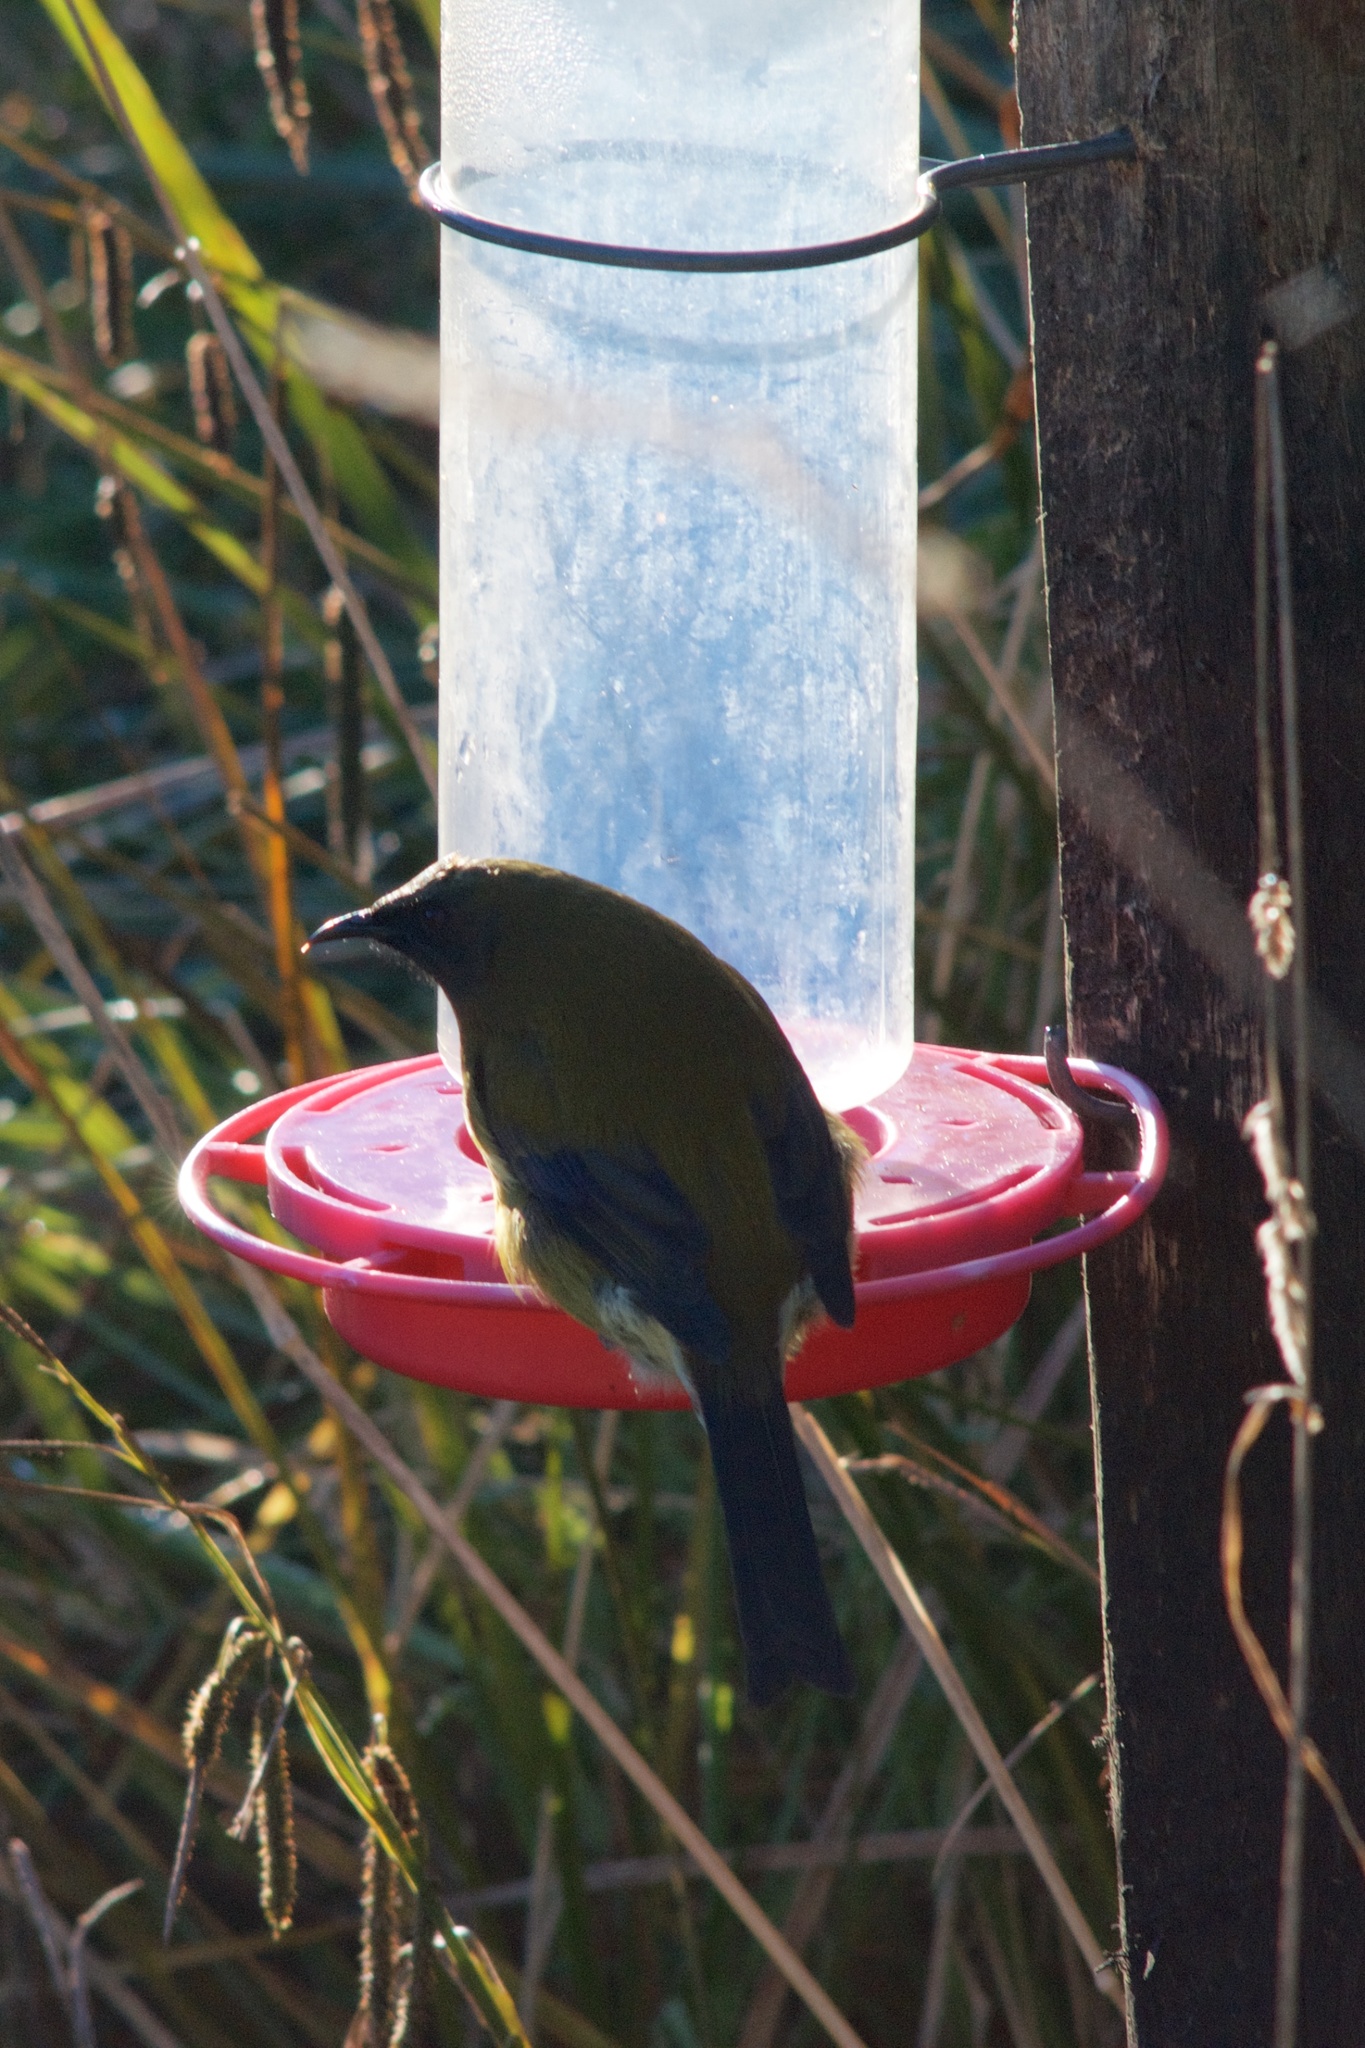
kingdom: Animalia
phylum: Chordata
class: Aves
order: Passeriformes
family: Meliphagidae
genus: Anthornis
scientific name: Anthornis melanura
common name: New zealand bellbird
